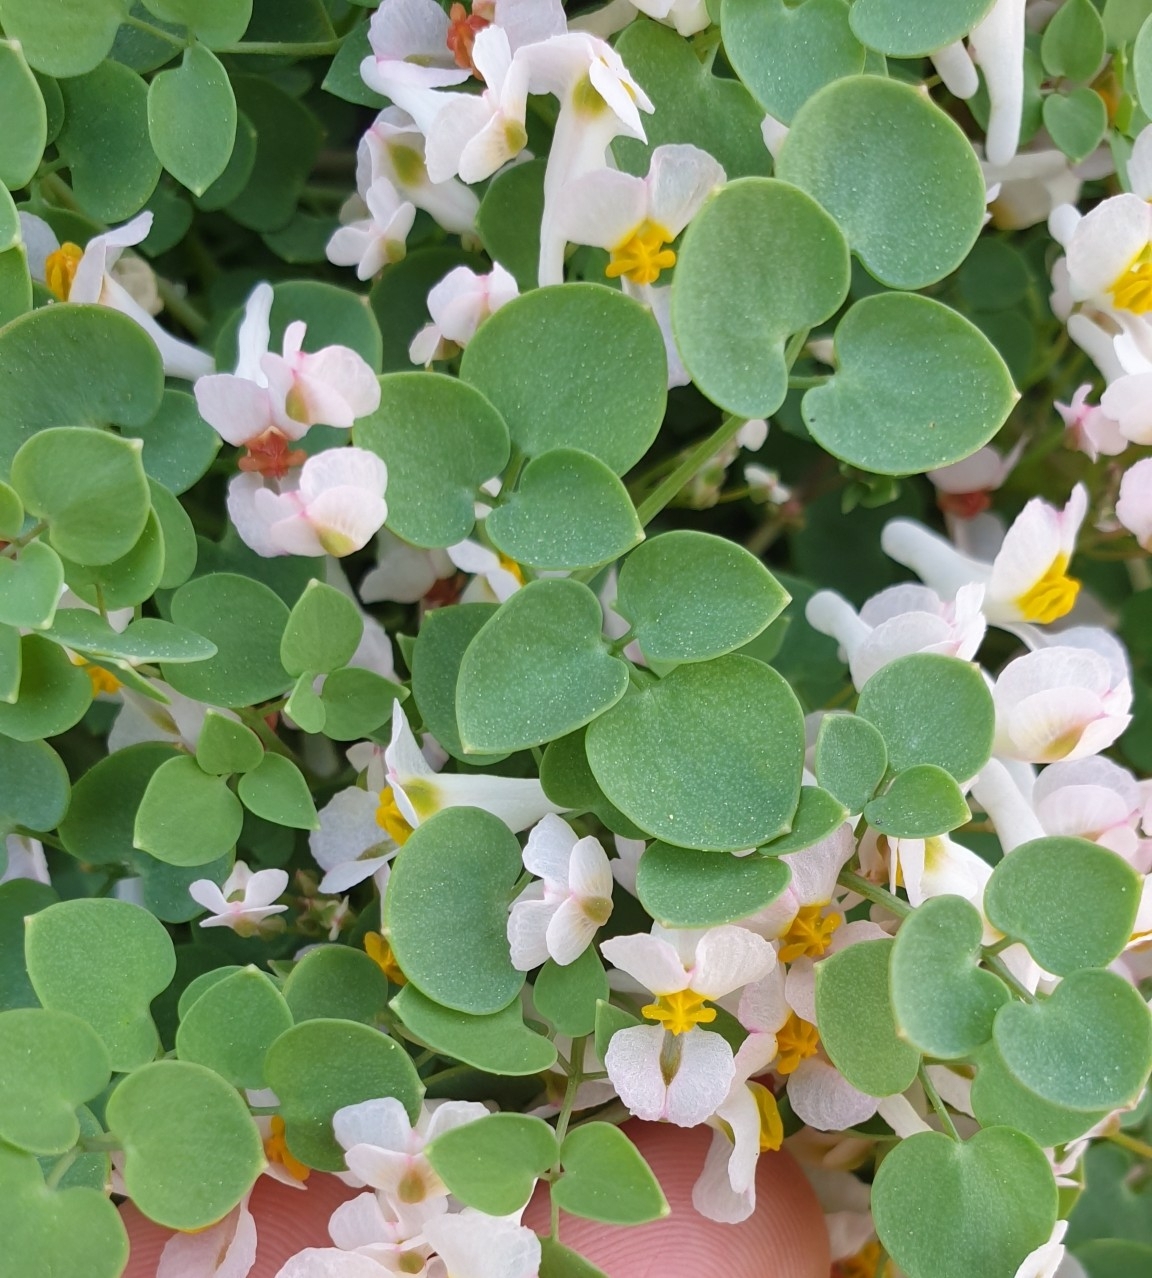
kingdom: Plantae
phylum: Tracheophyta
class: Magnoliopsida
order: Ranunculales
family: Papaveraceae
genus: Sarcocapnos
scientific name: Sarcocapnos enneaphylla
